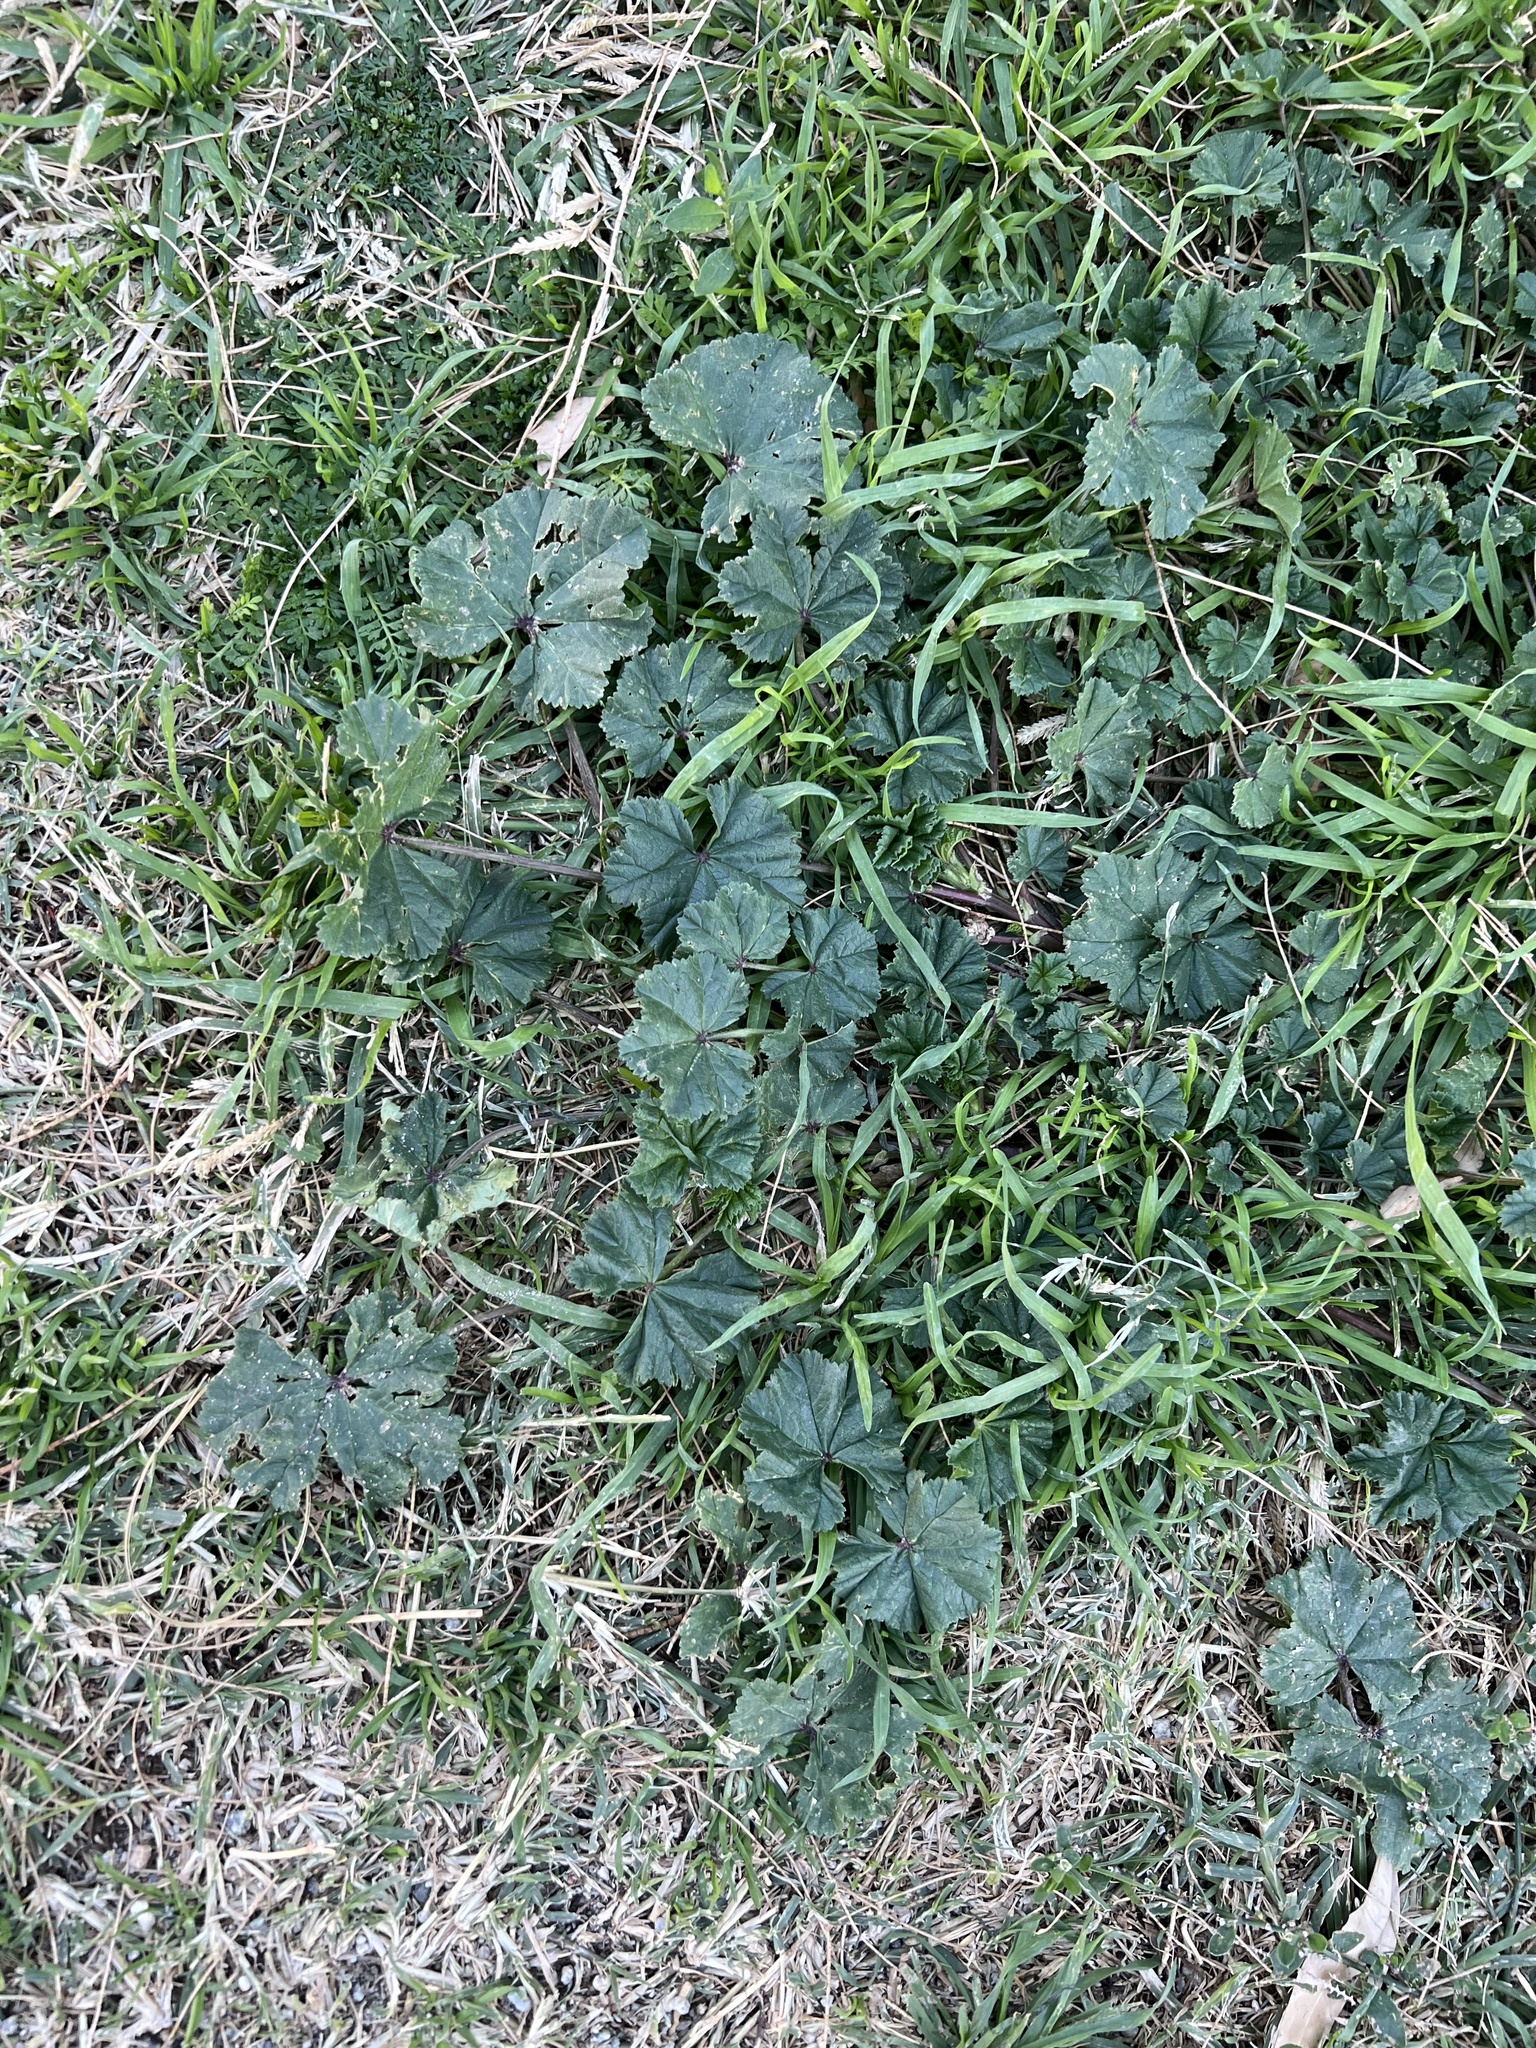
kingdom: Plantae
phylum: Tracheophyta
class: Magnoliopsida
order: Malvales
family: Malvaceae
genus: Malva
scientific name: Malva
